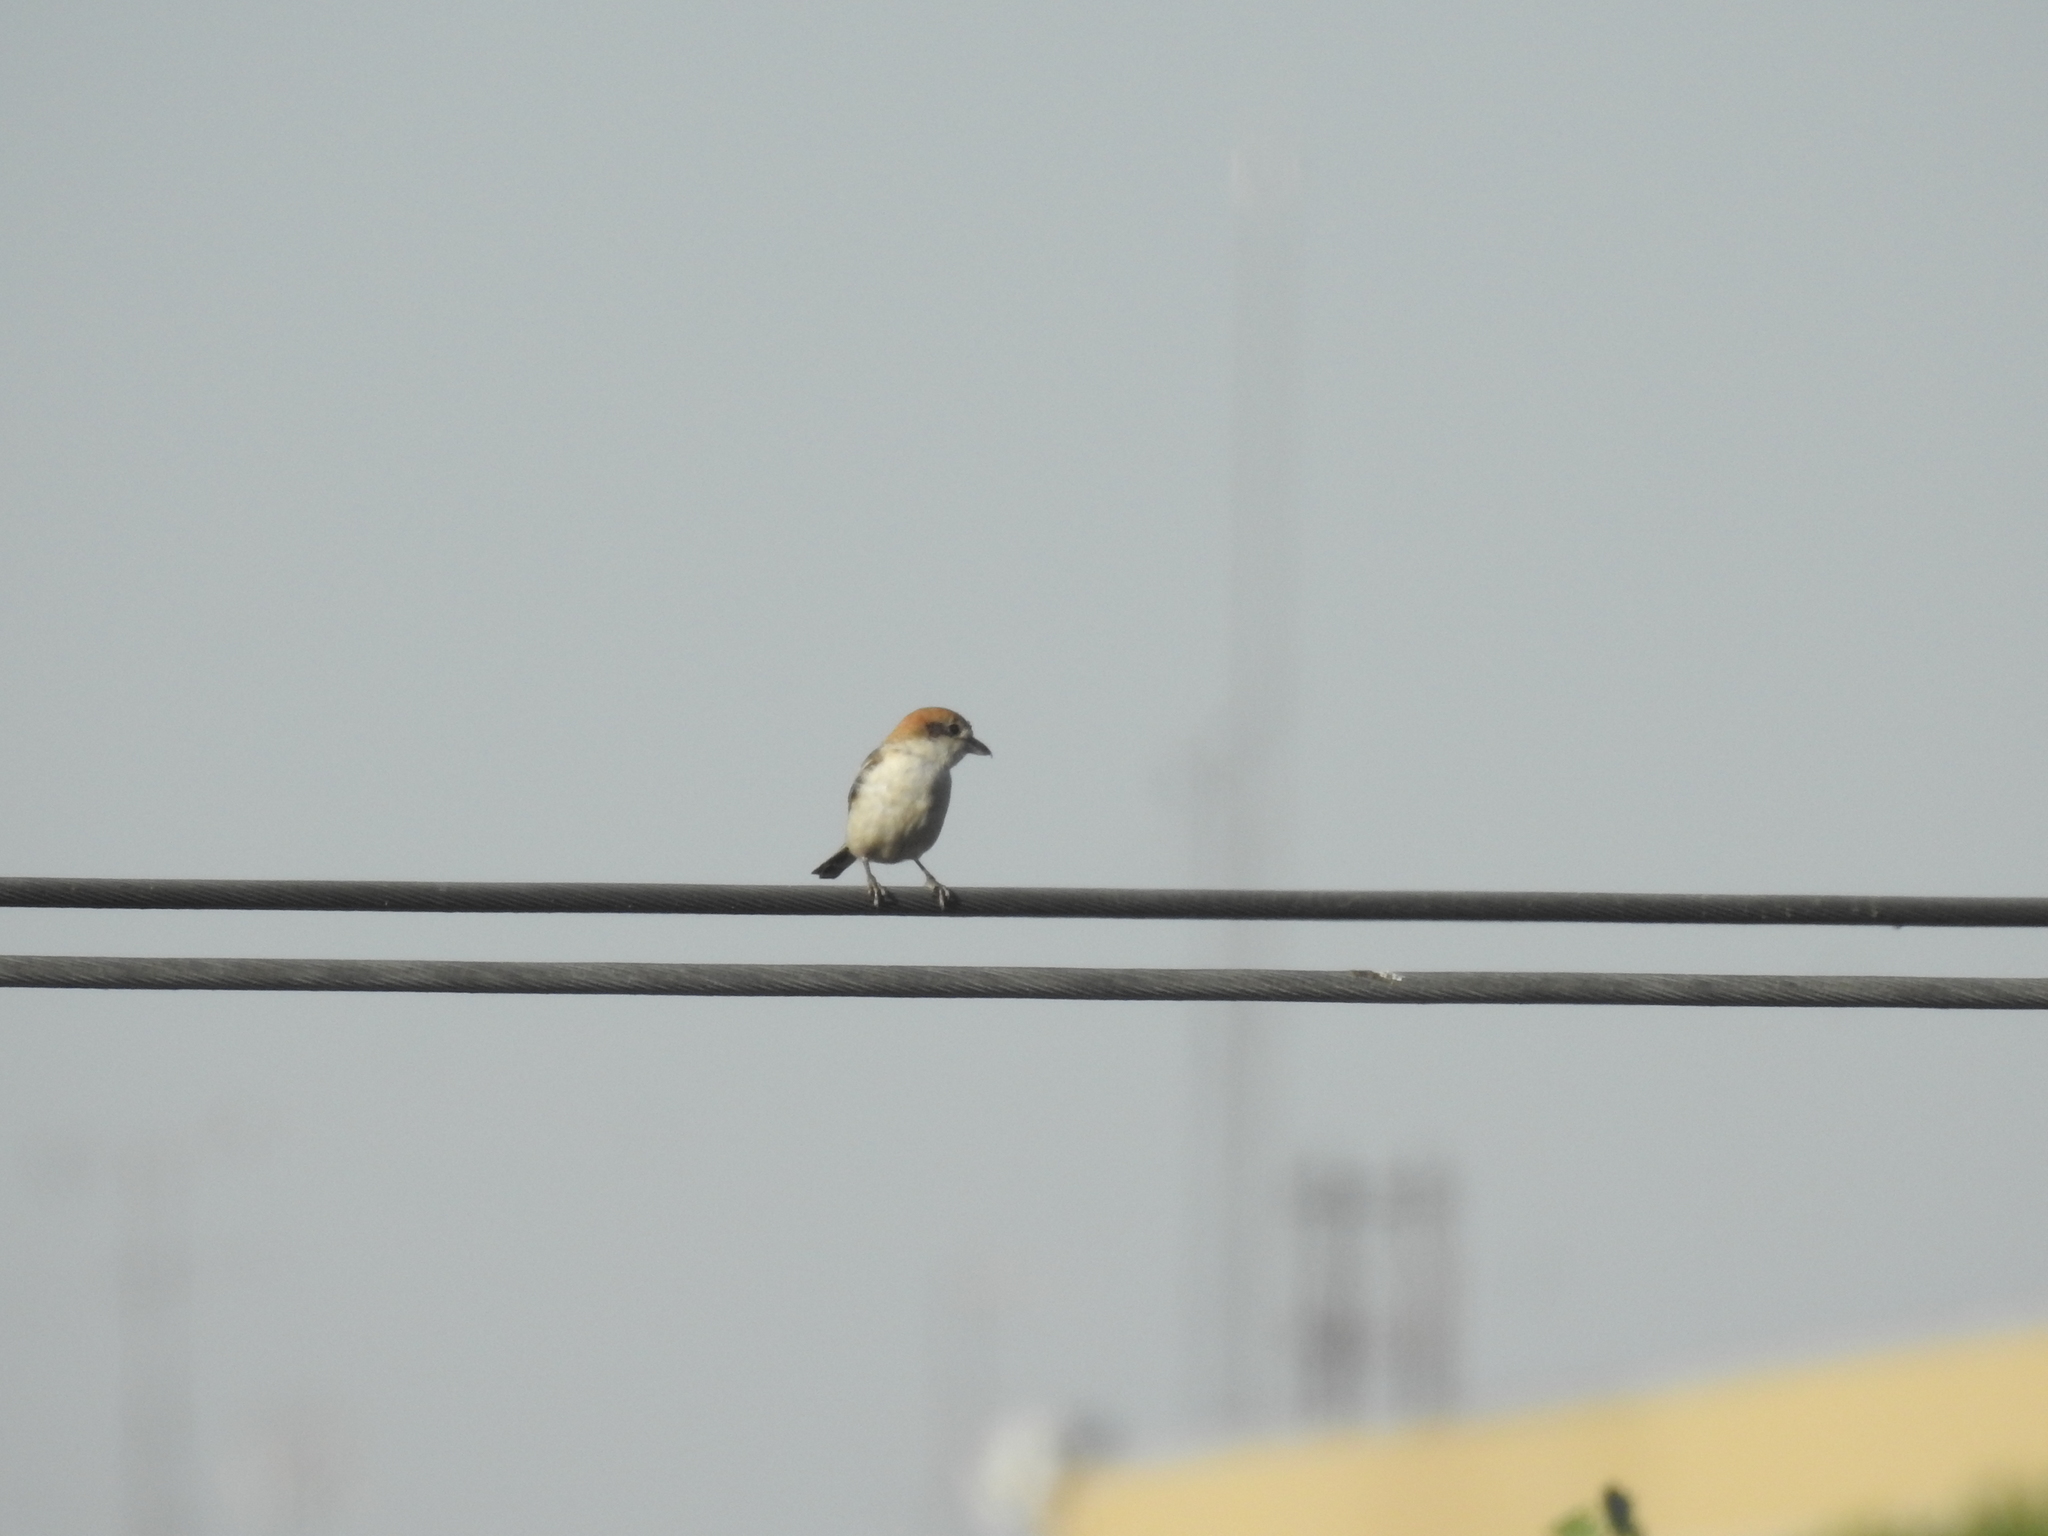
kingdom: Animalia
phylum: Chordata
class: Aves
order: Passeriformes
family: Laniidae
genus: Lanius
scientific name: Lanius senator
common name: Woodchat shrike
